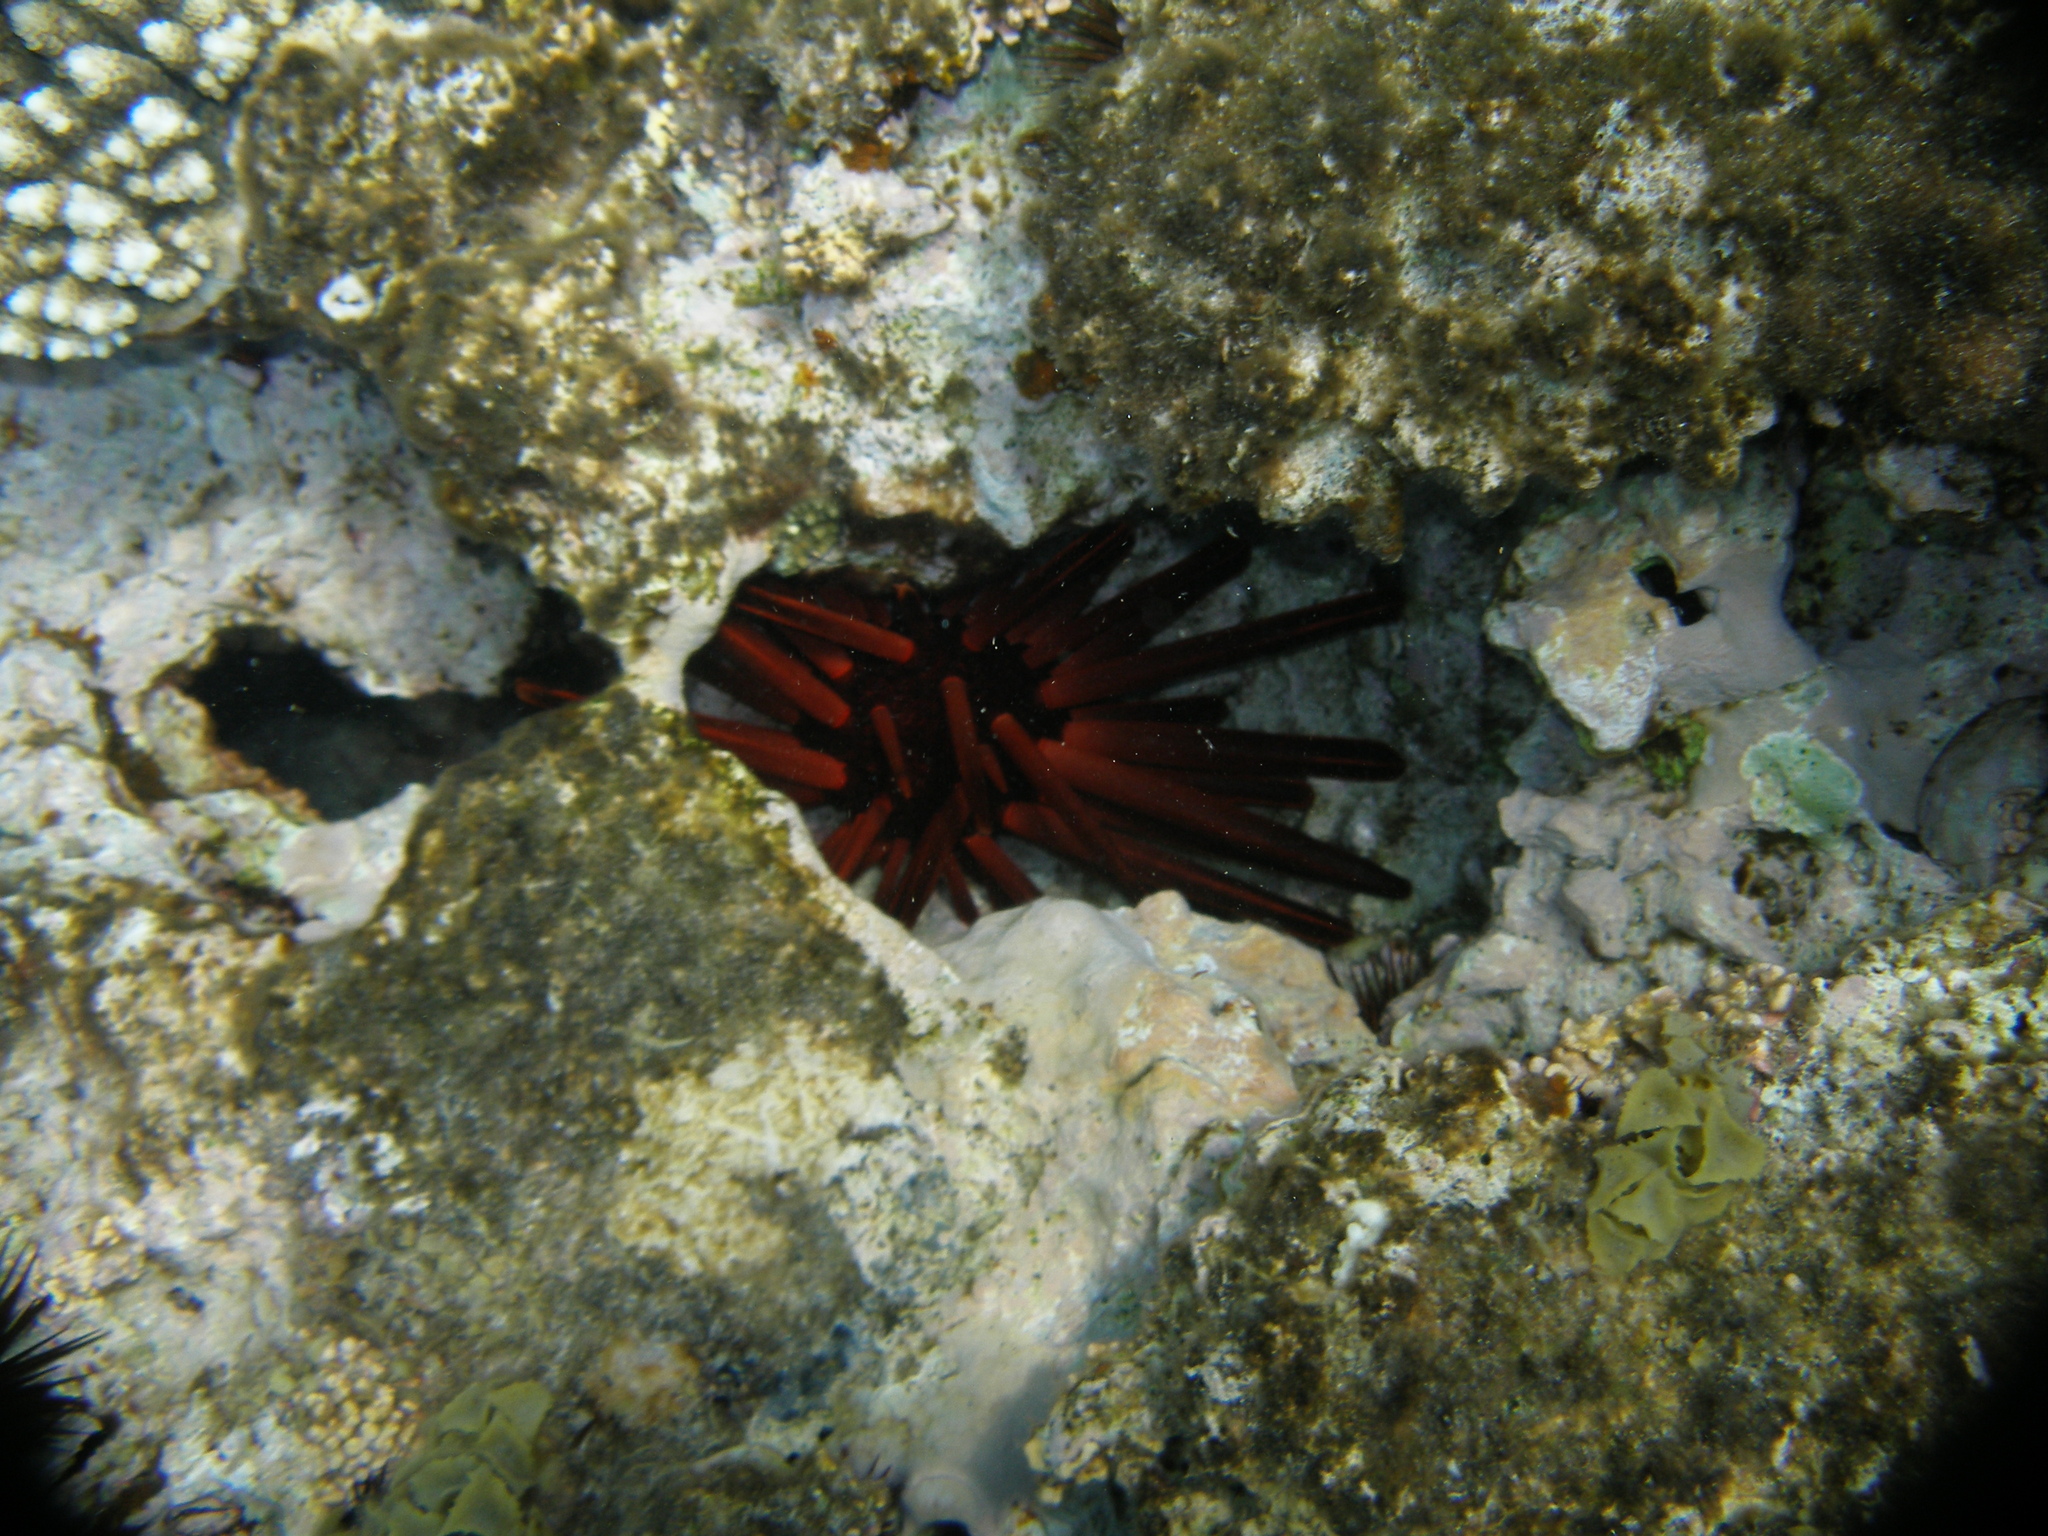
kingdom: Animalia
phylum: Echinodermata
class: Echinoidea
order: Camarodonta
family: Echinometridae
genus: Heterocentrotus
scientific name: Heterocentrotus mamillatus
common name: Slate pencil urchin
